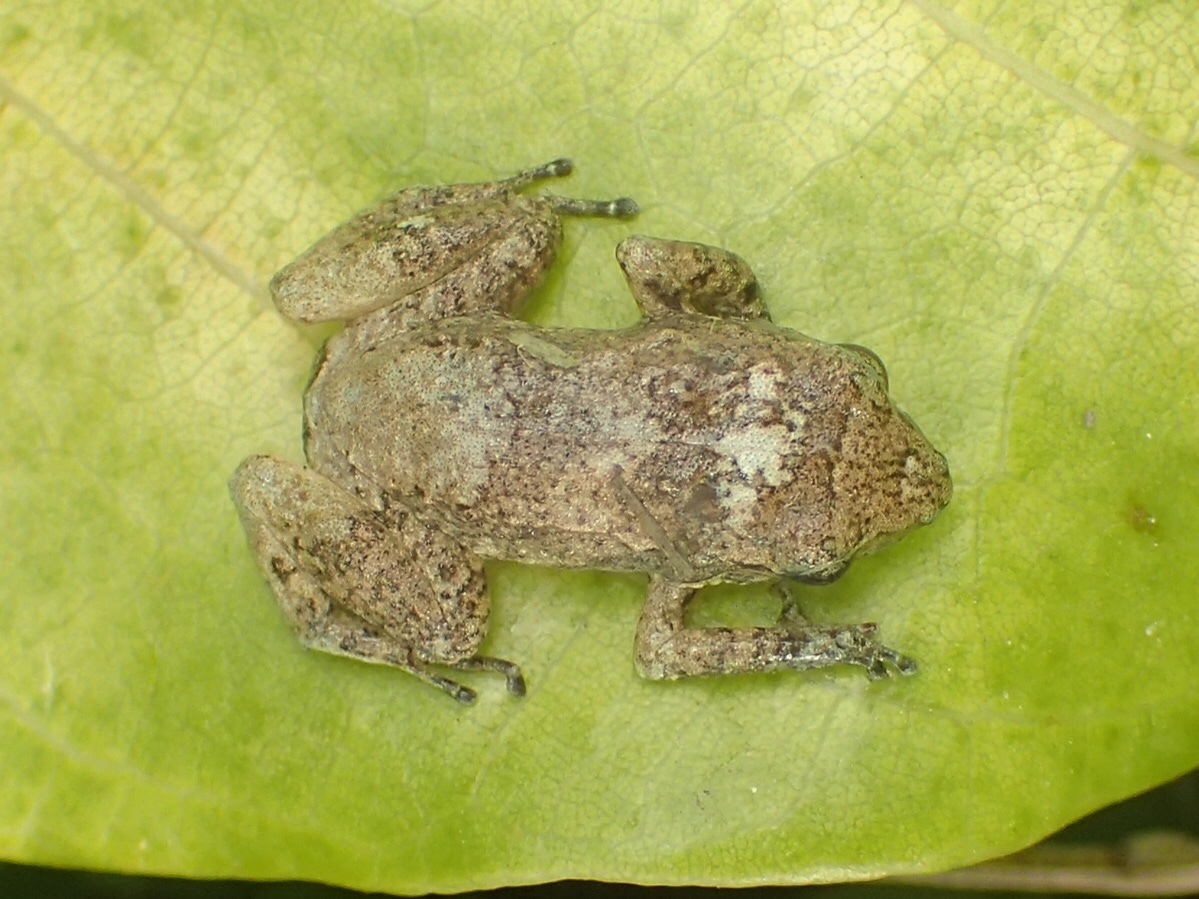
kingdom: Animalia
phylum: Chordata
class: Amphibia
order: Anura
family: Eleutherodactylidae
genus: Eleutherodactylus
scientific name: Eleutherodactylus planirostris
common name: Greenhouse frog
